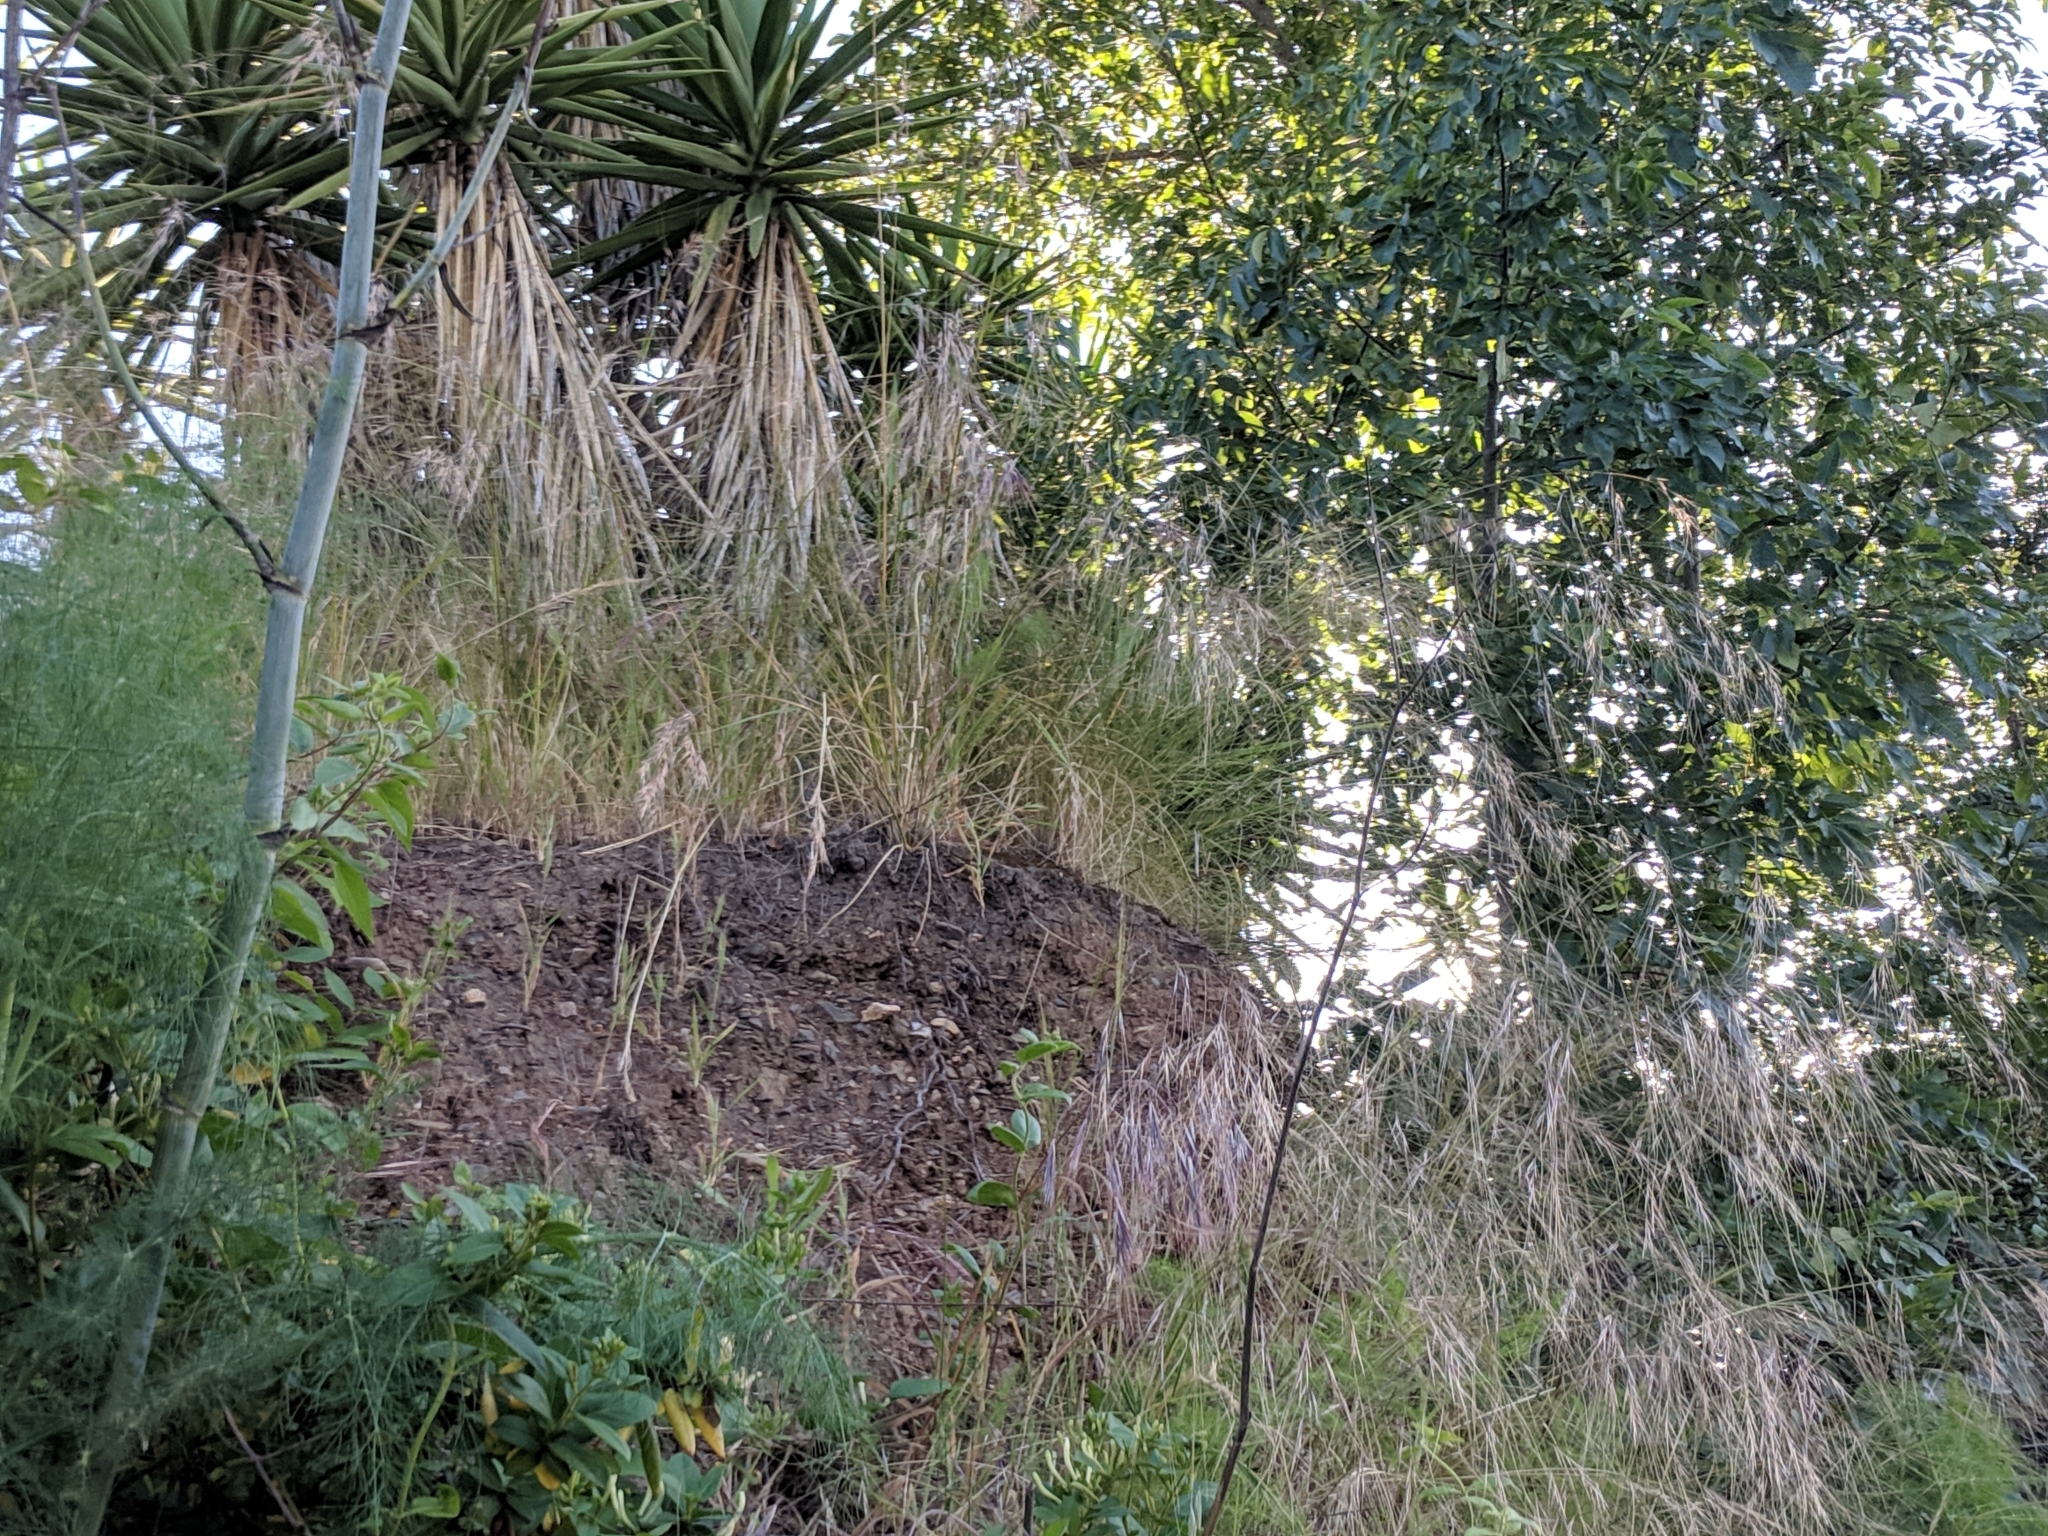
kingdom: Plantae
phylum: Tracheophyta
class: Liliopsida
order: Poales
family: Poaceae
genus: Nassella
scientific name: Nassella pulchra
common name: Purple needlegrass
